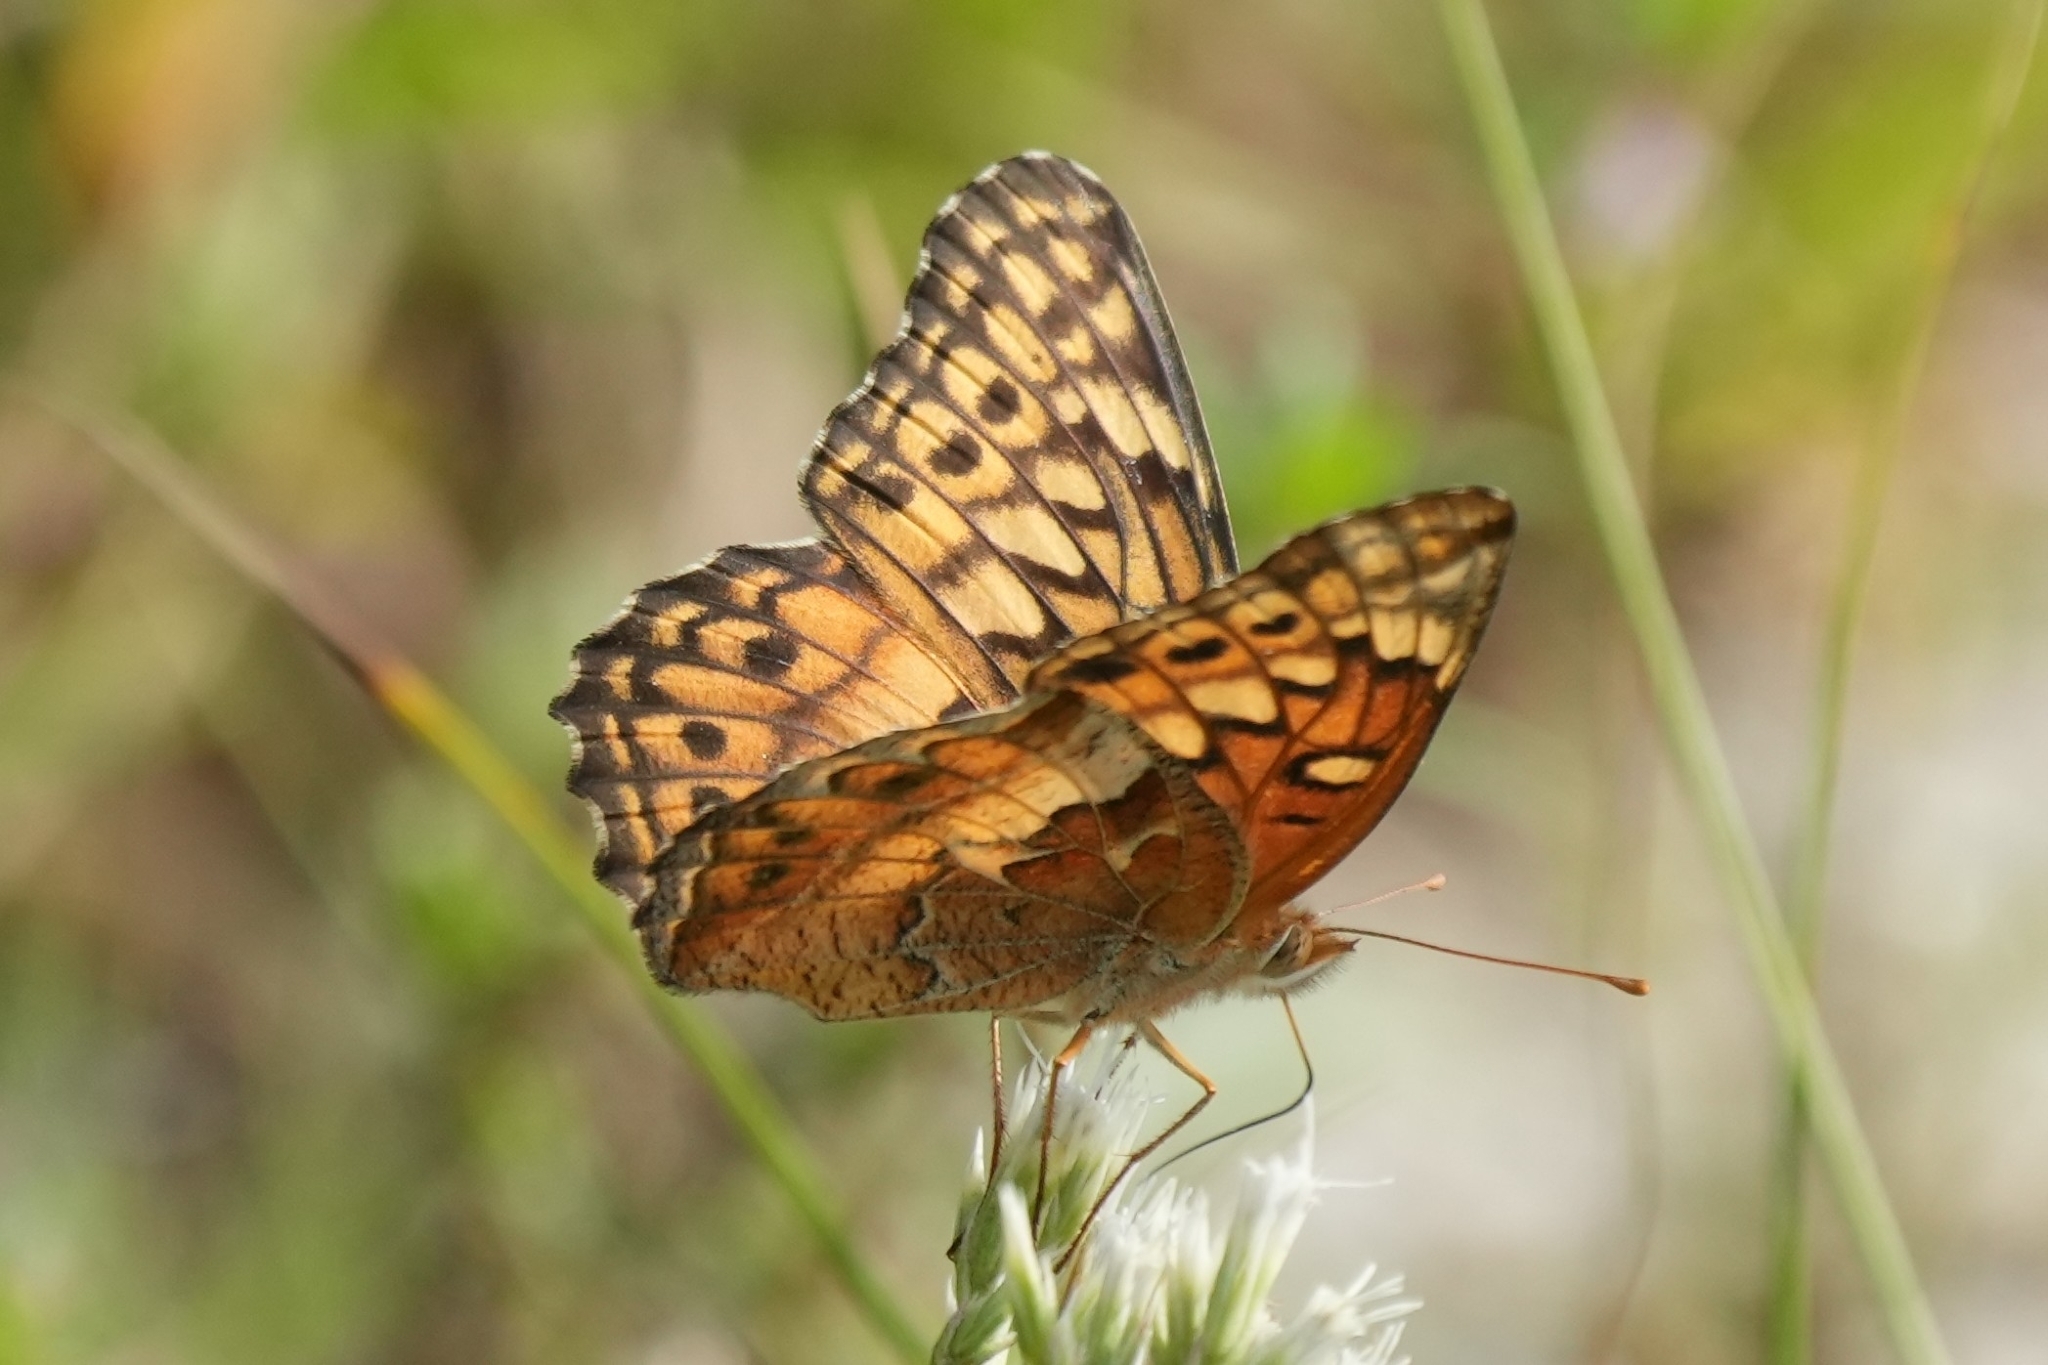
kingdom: Animalia
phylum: Arthropoda
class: Insecta
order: Lepidoptera
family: Nymphalidae
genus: Euptoieta
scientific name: Euptoieta claudia
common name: Variegated fritillary
